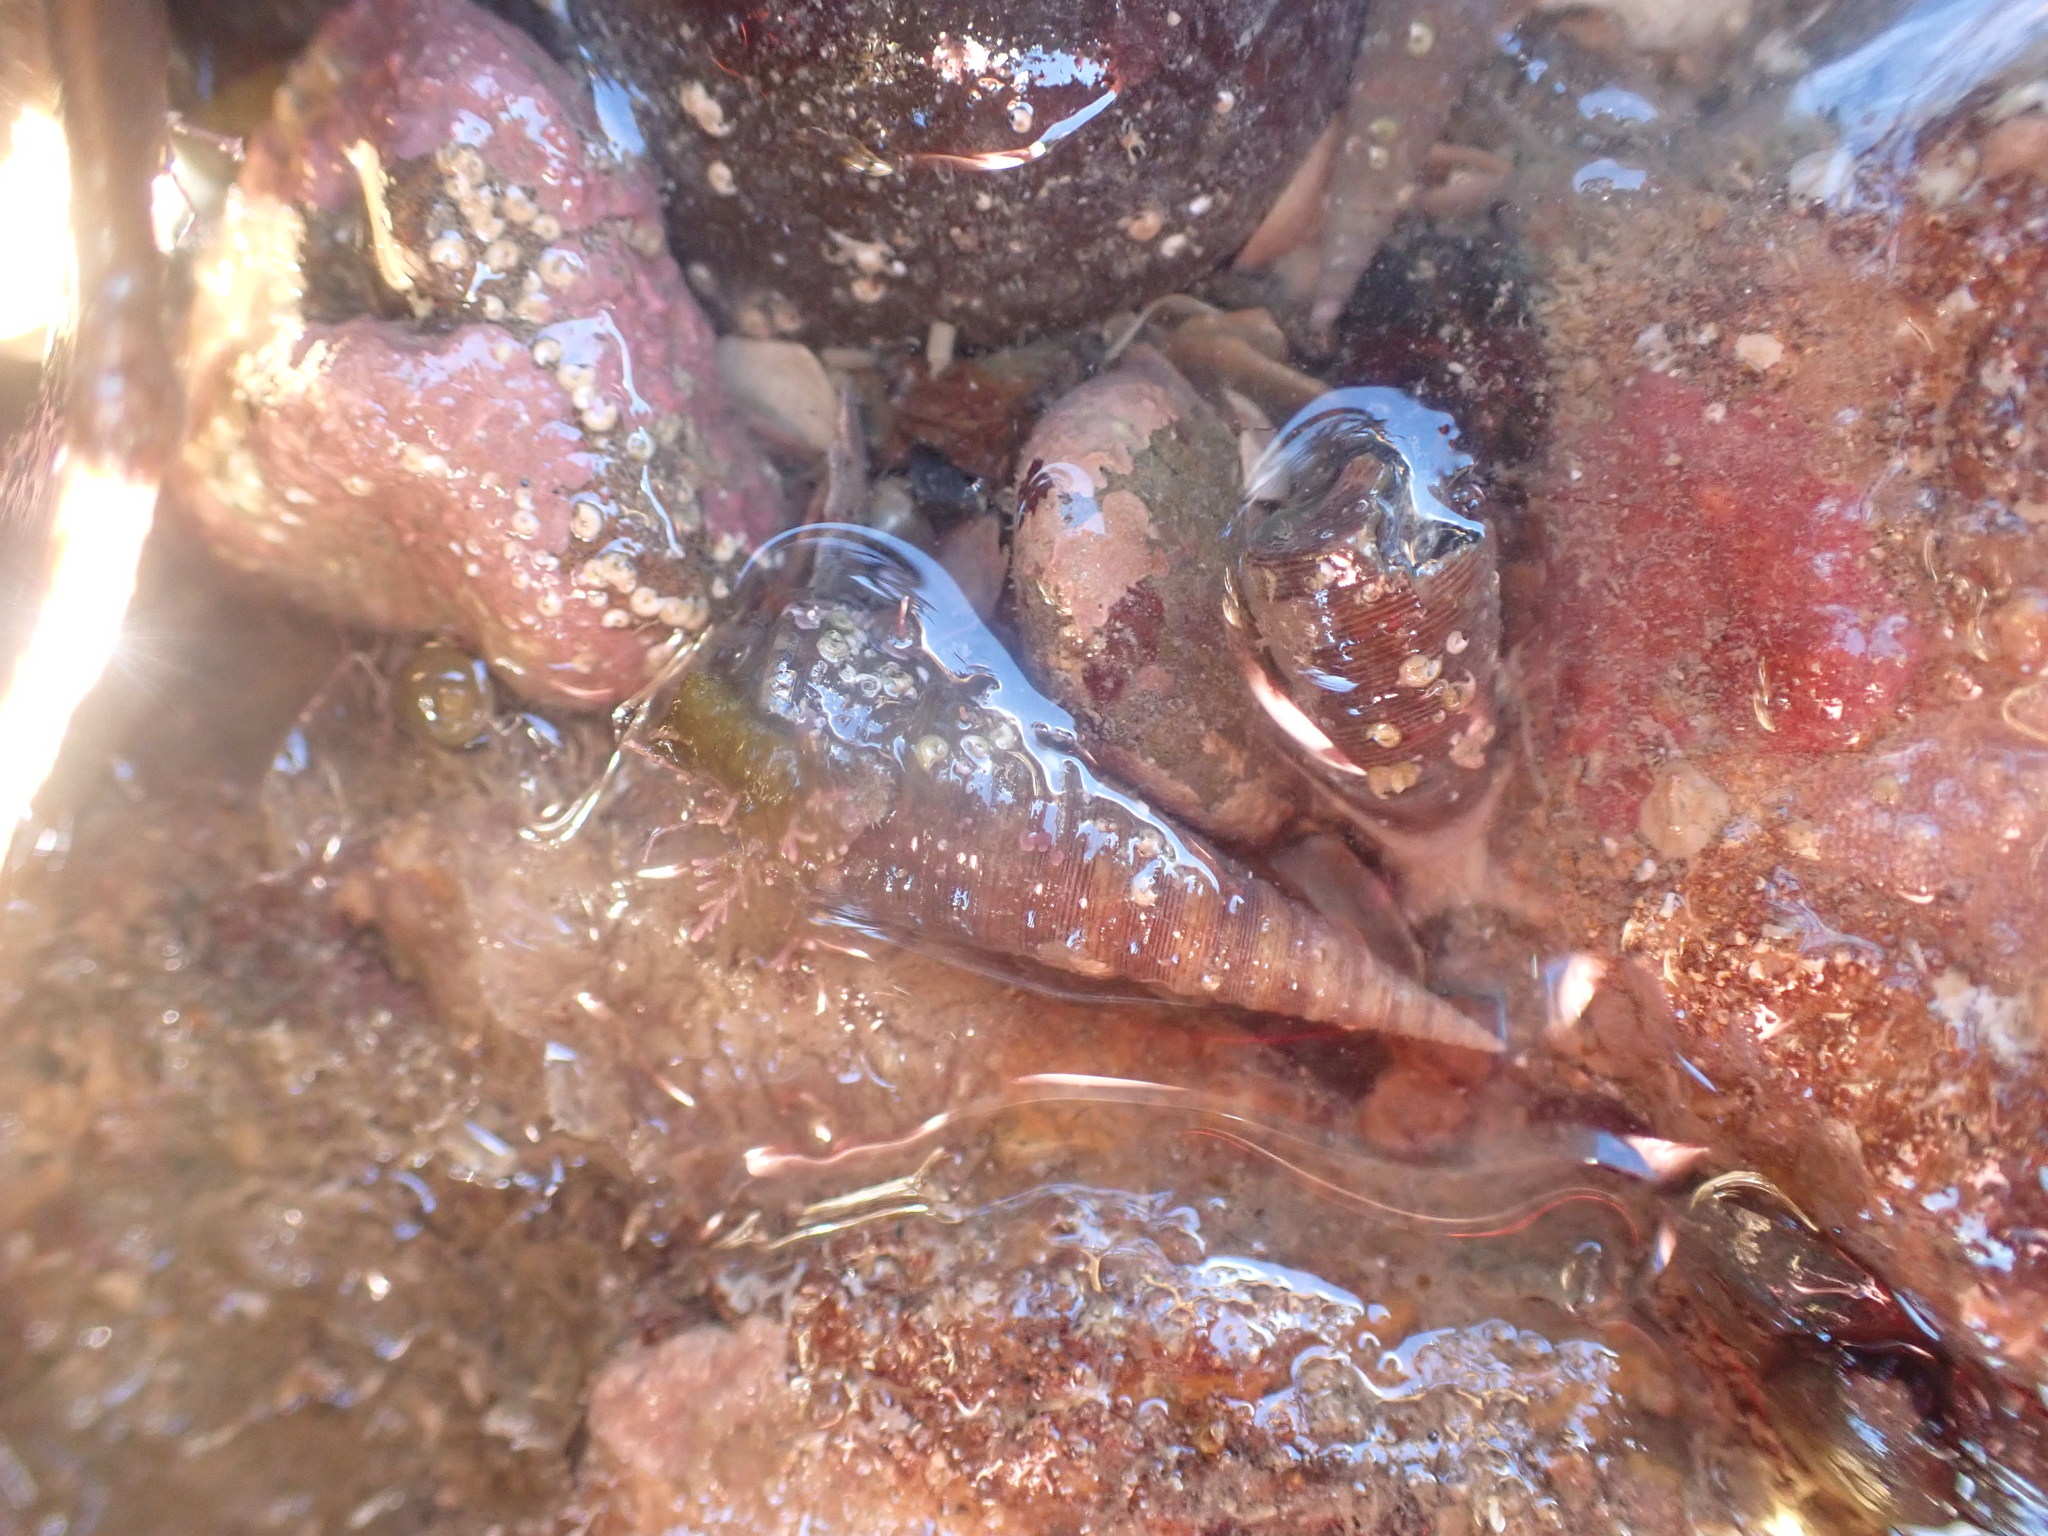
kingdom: Animalia
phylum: Mollusca
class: Gastropoda
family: Turritellidae
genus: Maoricolpus
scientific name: Maoricolpus roseus
